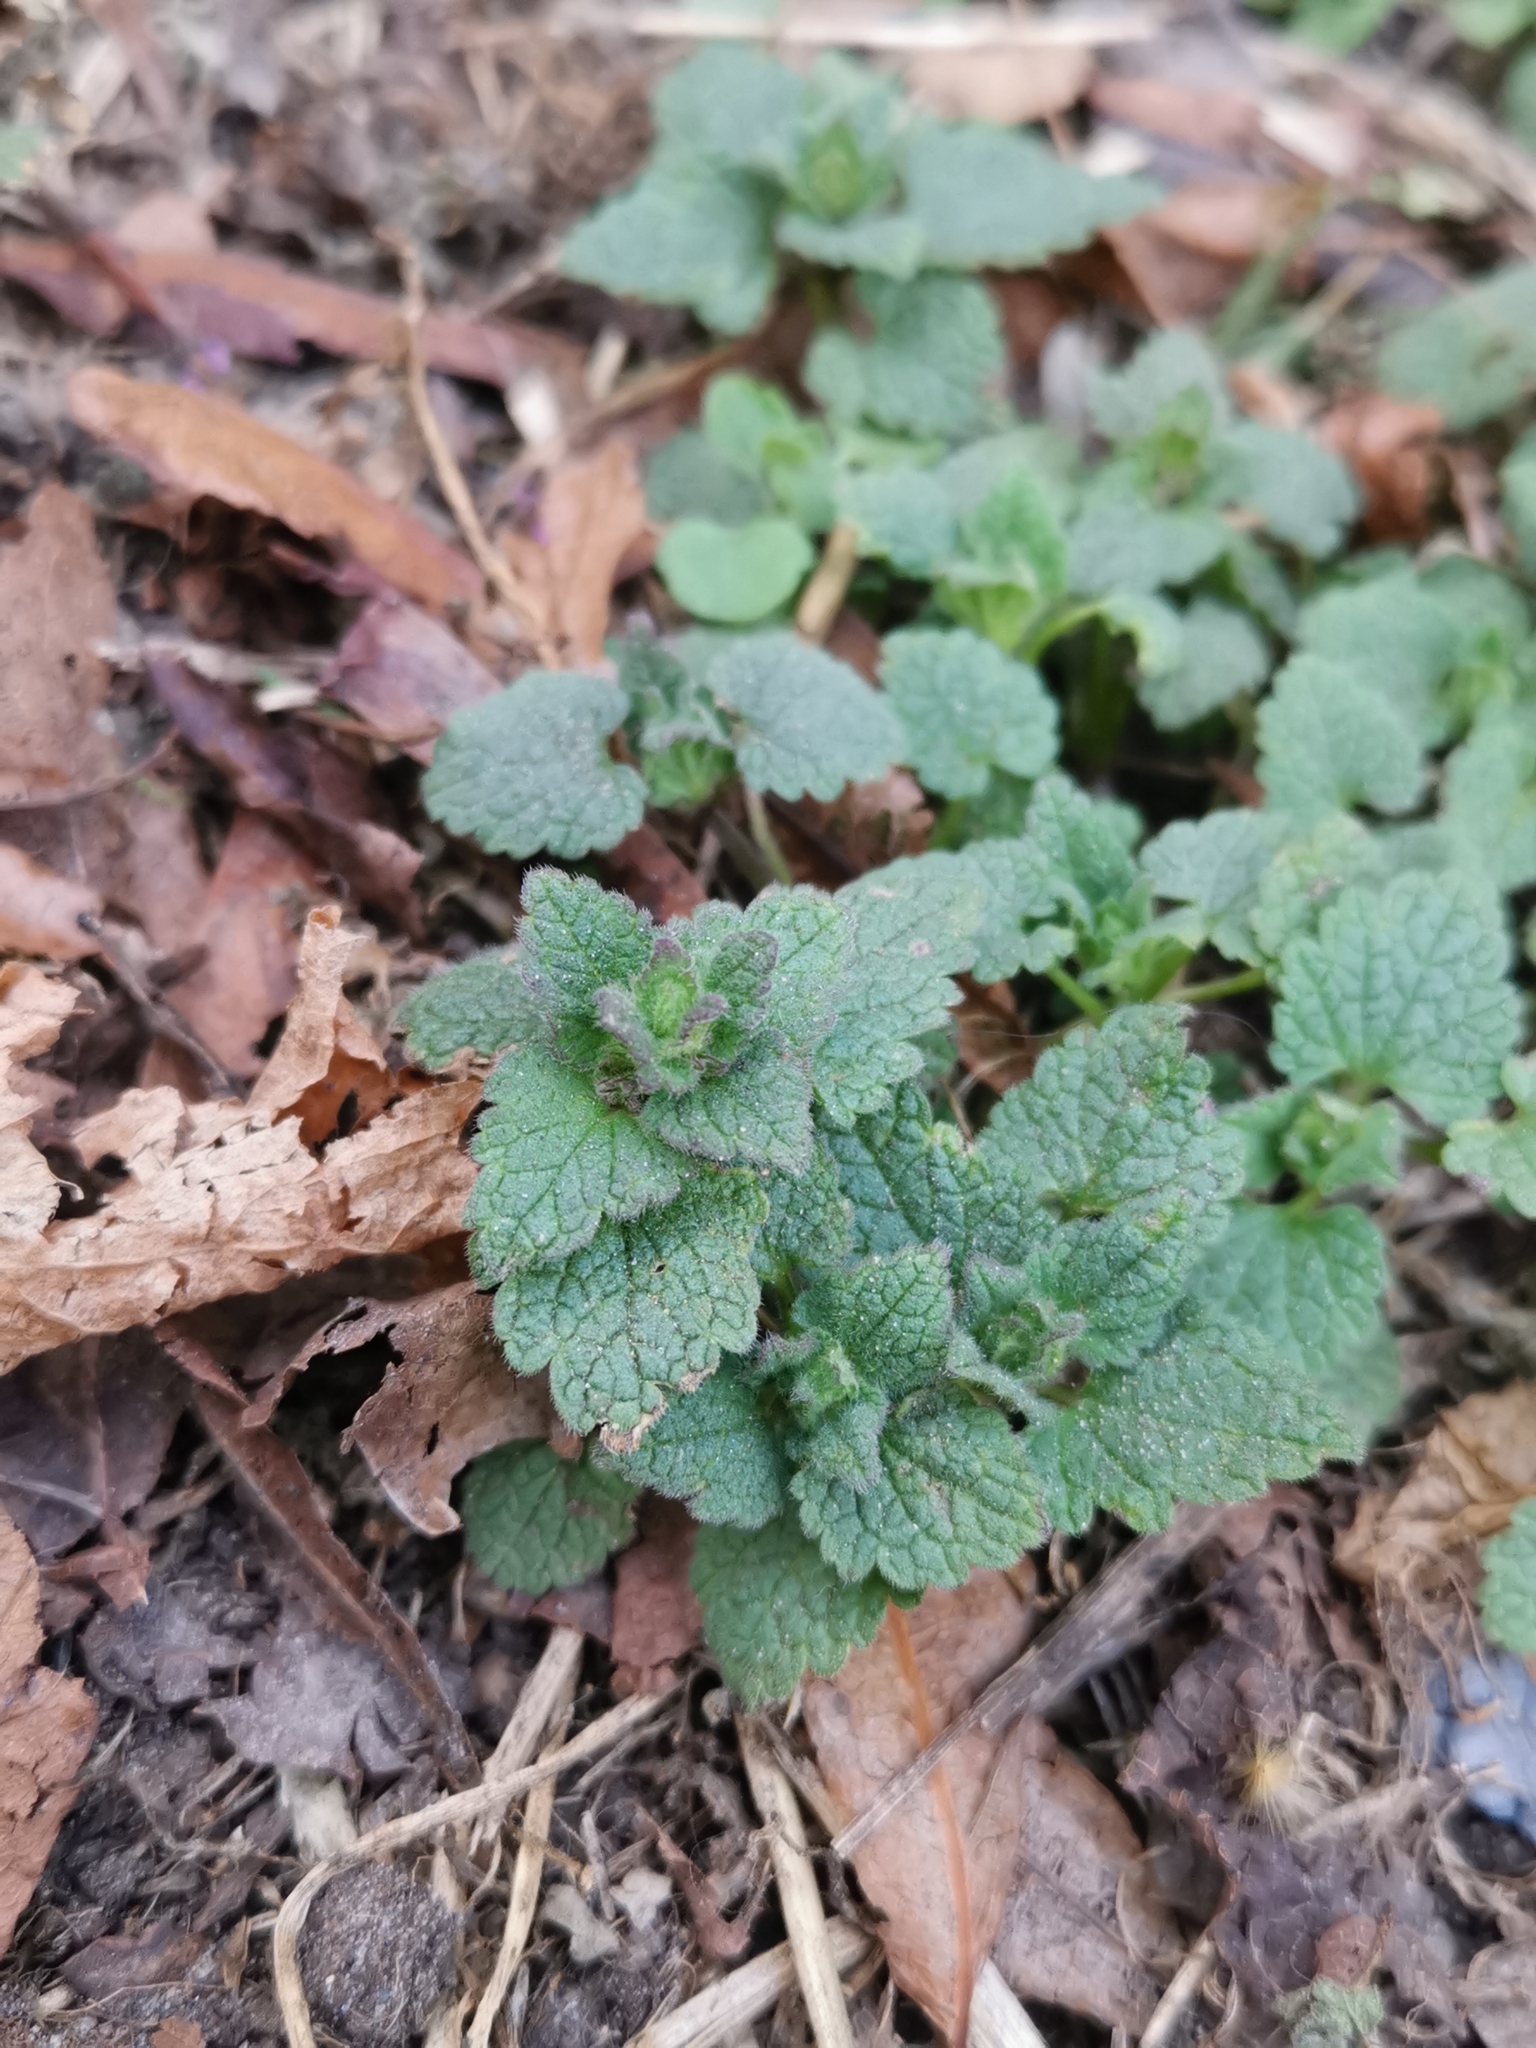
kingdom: Plantae
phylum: Tracheophyta
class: Magnoliopsida
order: Lamiales
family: Lamiaceae
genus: Lamium
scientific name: Lamium purpureum
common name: Red dead-nettle
